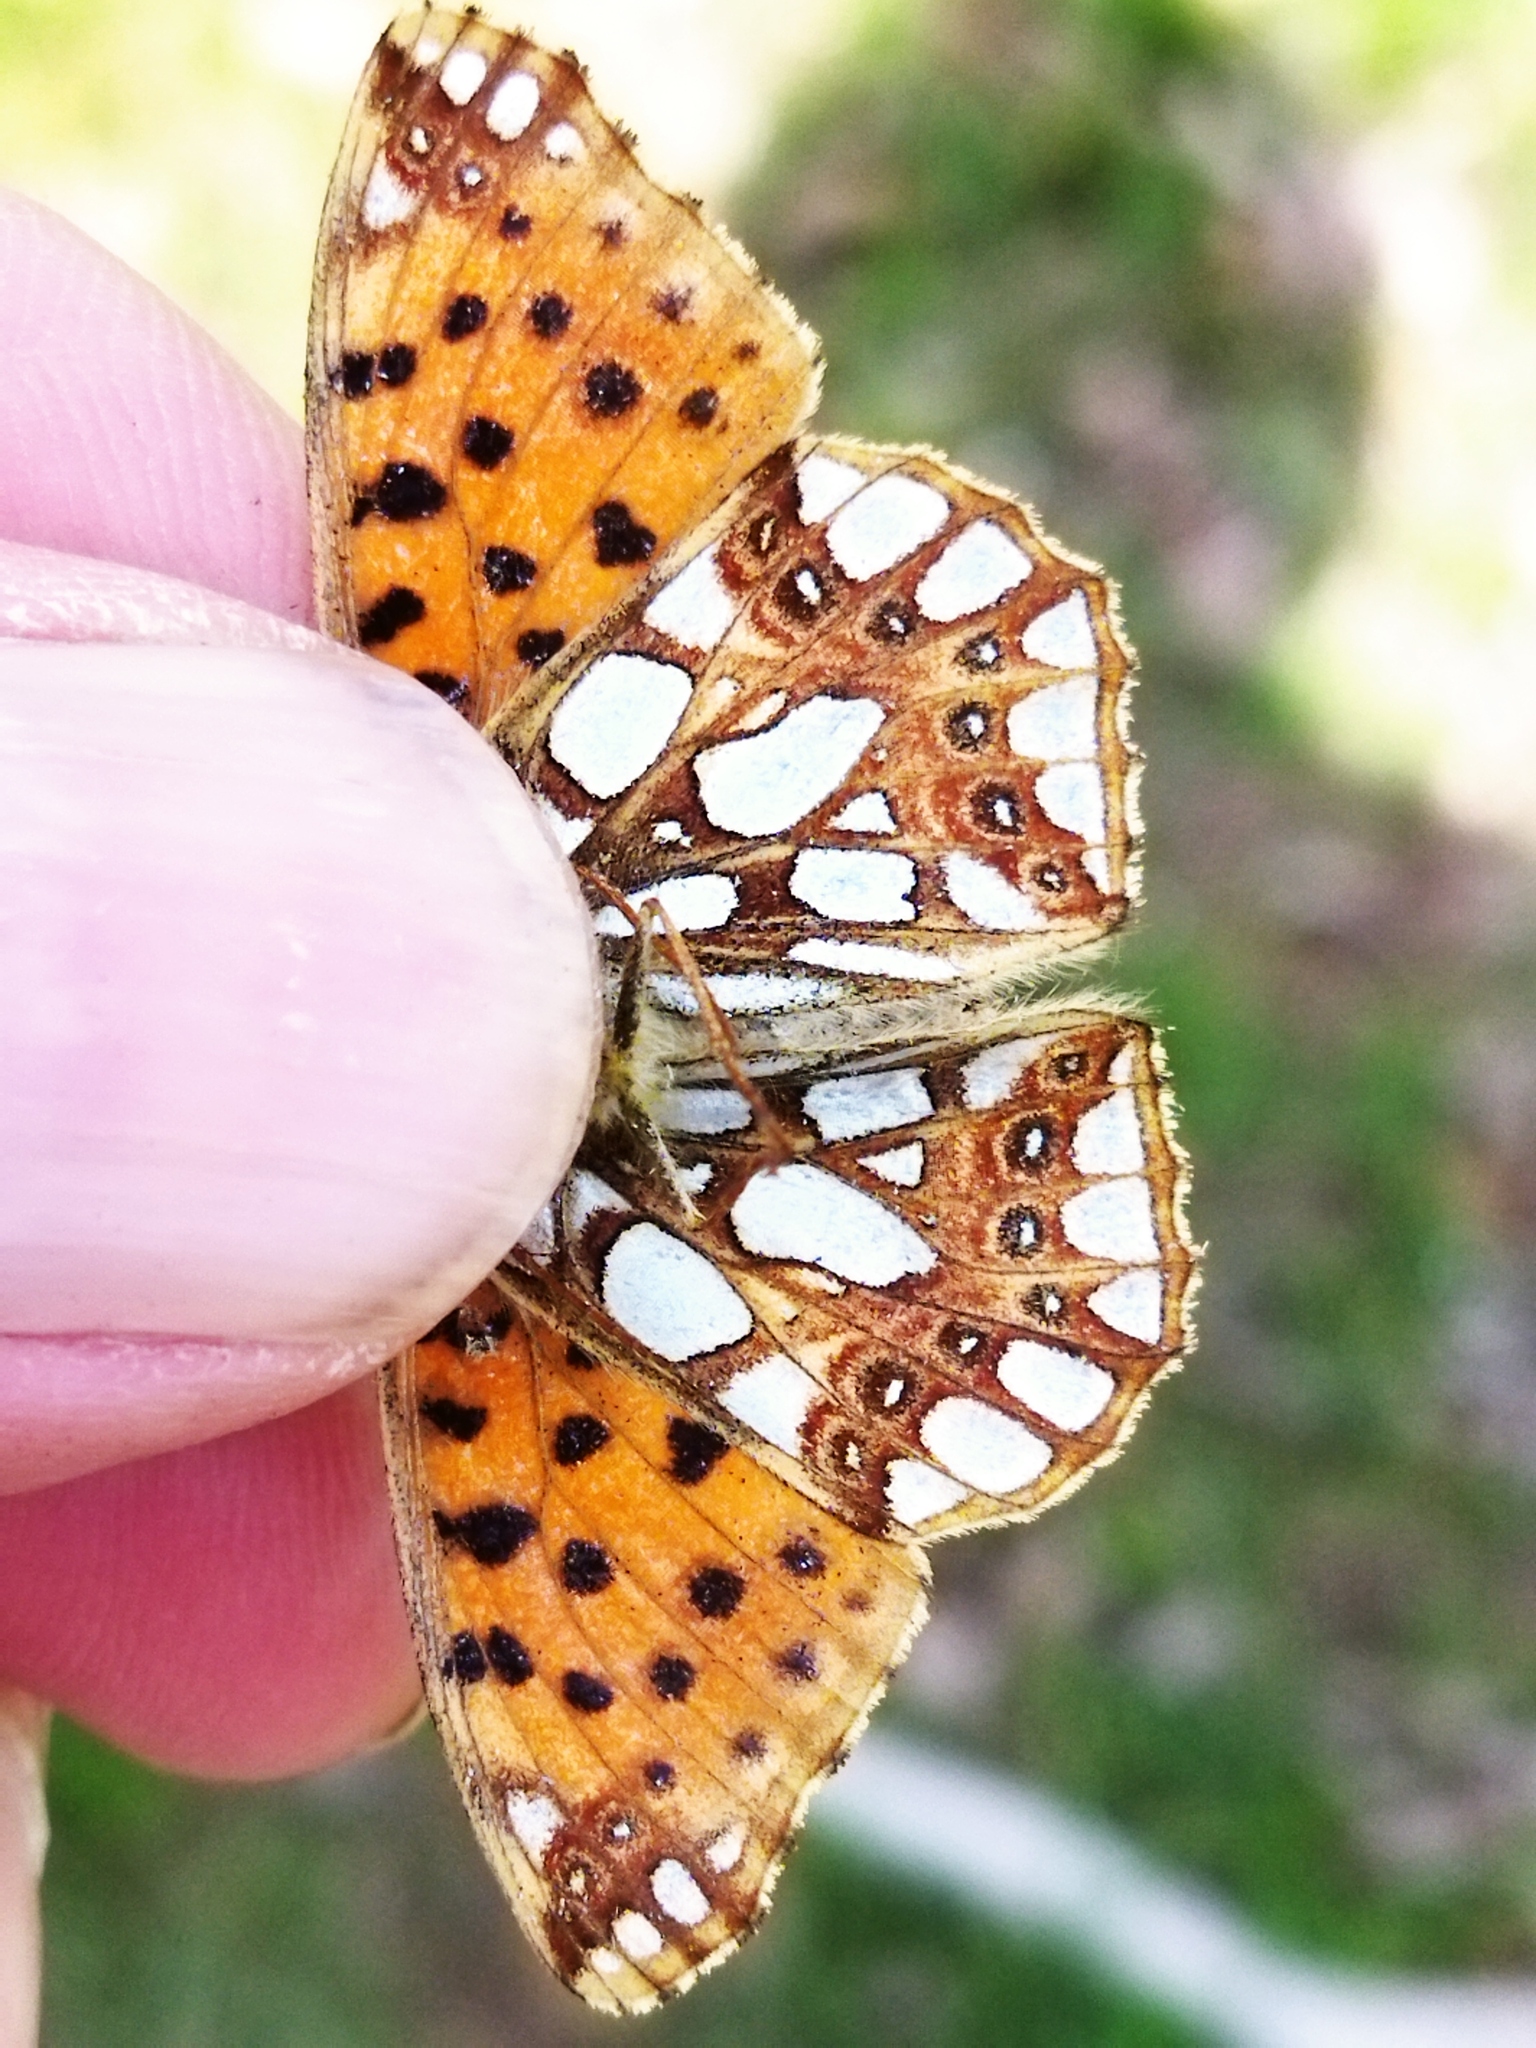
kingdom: Animalia
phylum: Arthropoda
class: Insecta
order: Lepidoptera
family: Nymphalidae
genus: Issoria
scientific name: Issoria lathonia
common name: Queen of spain fritillary
